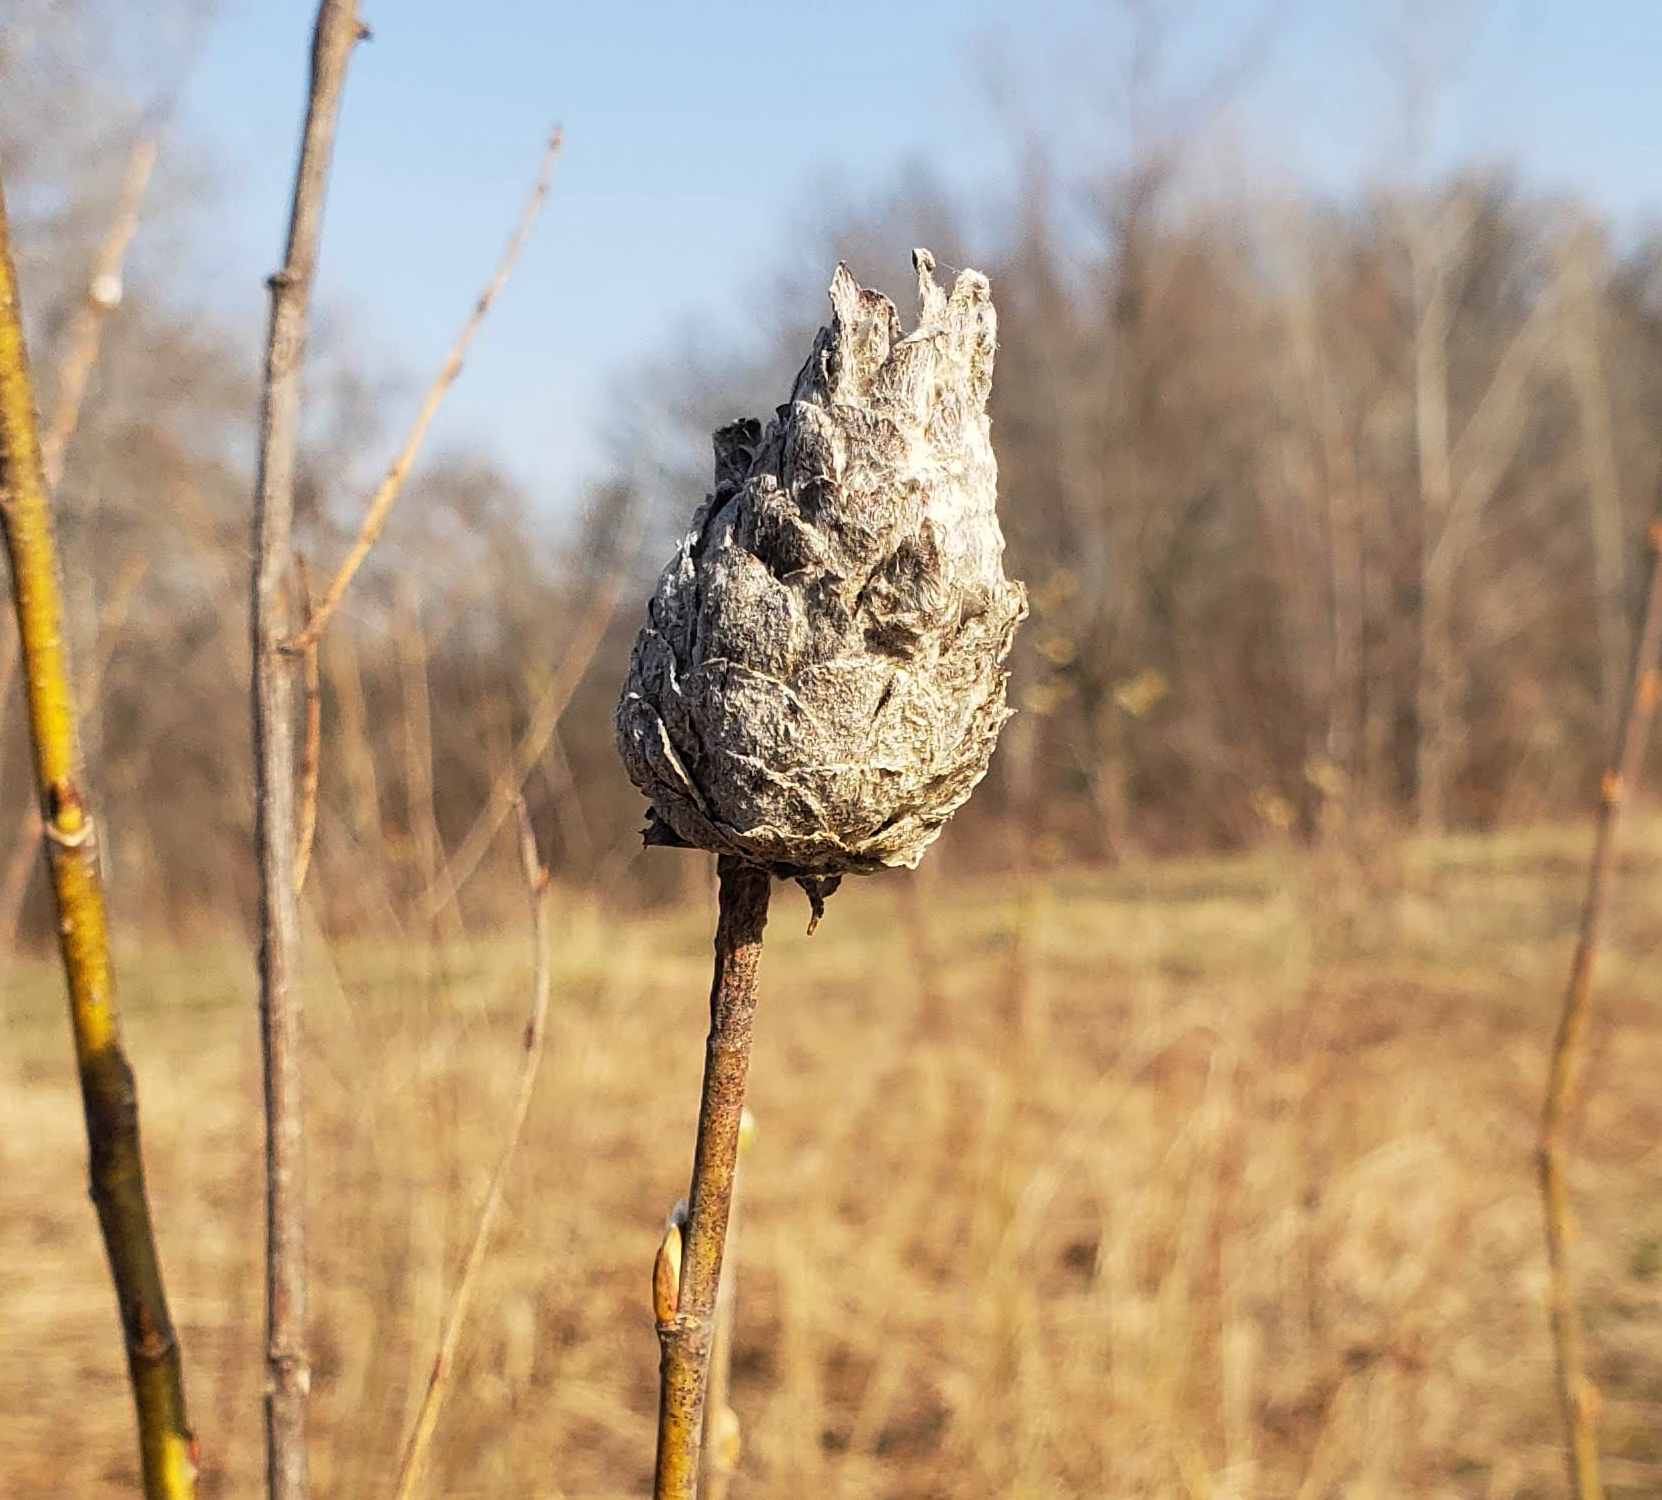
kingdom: Animalia
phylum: Arthropoda
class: Insecta
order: Diptera
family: Cecidomyiidae
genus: Rabdophaga
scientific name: Rabdophaga strobiloides
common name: Willow pinecone gall midge
